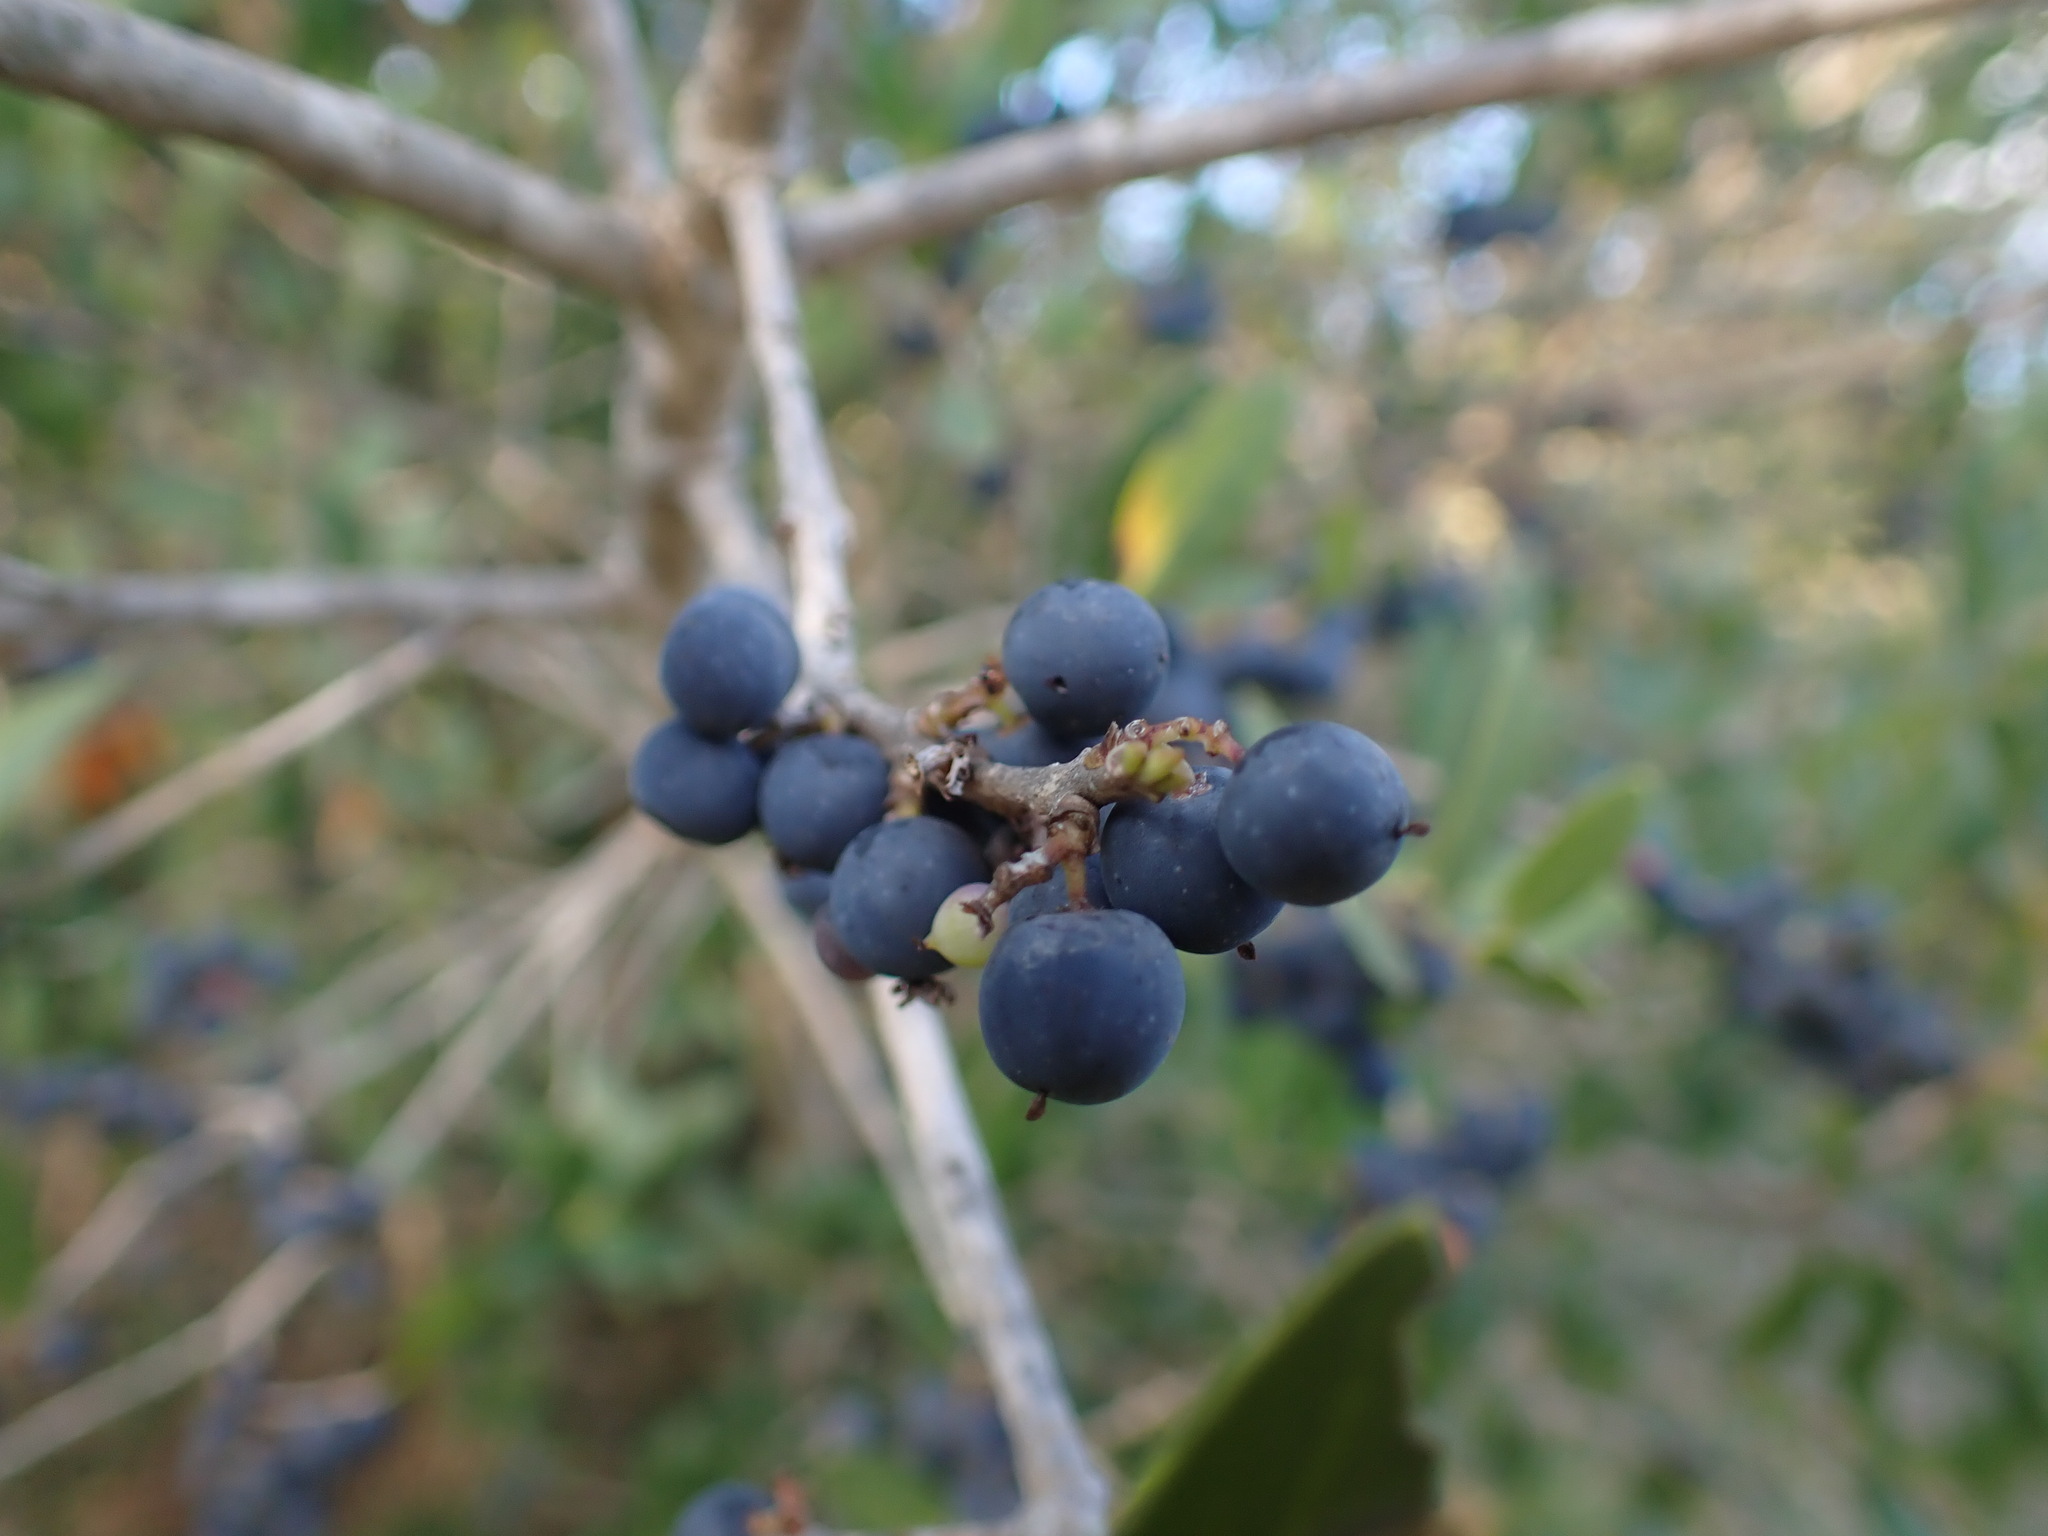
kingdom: Plantae
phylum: Tracheophyta
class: Magnoliopsida
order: Lamiales
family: Oleaceae
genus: Phillyrea
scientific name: Phillyrea latifolia
